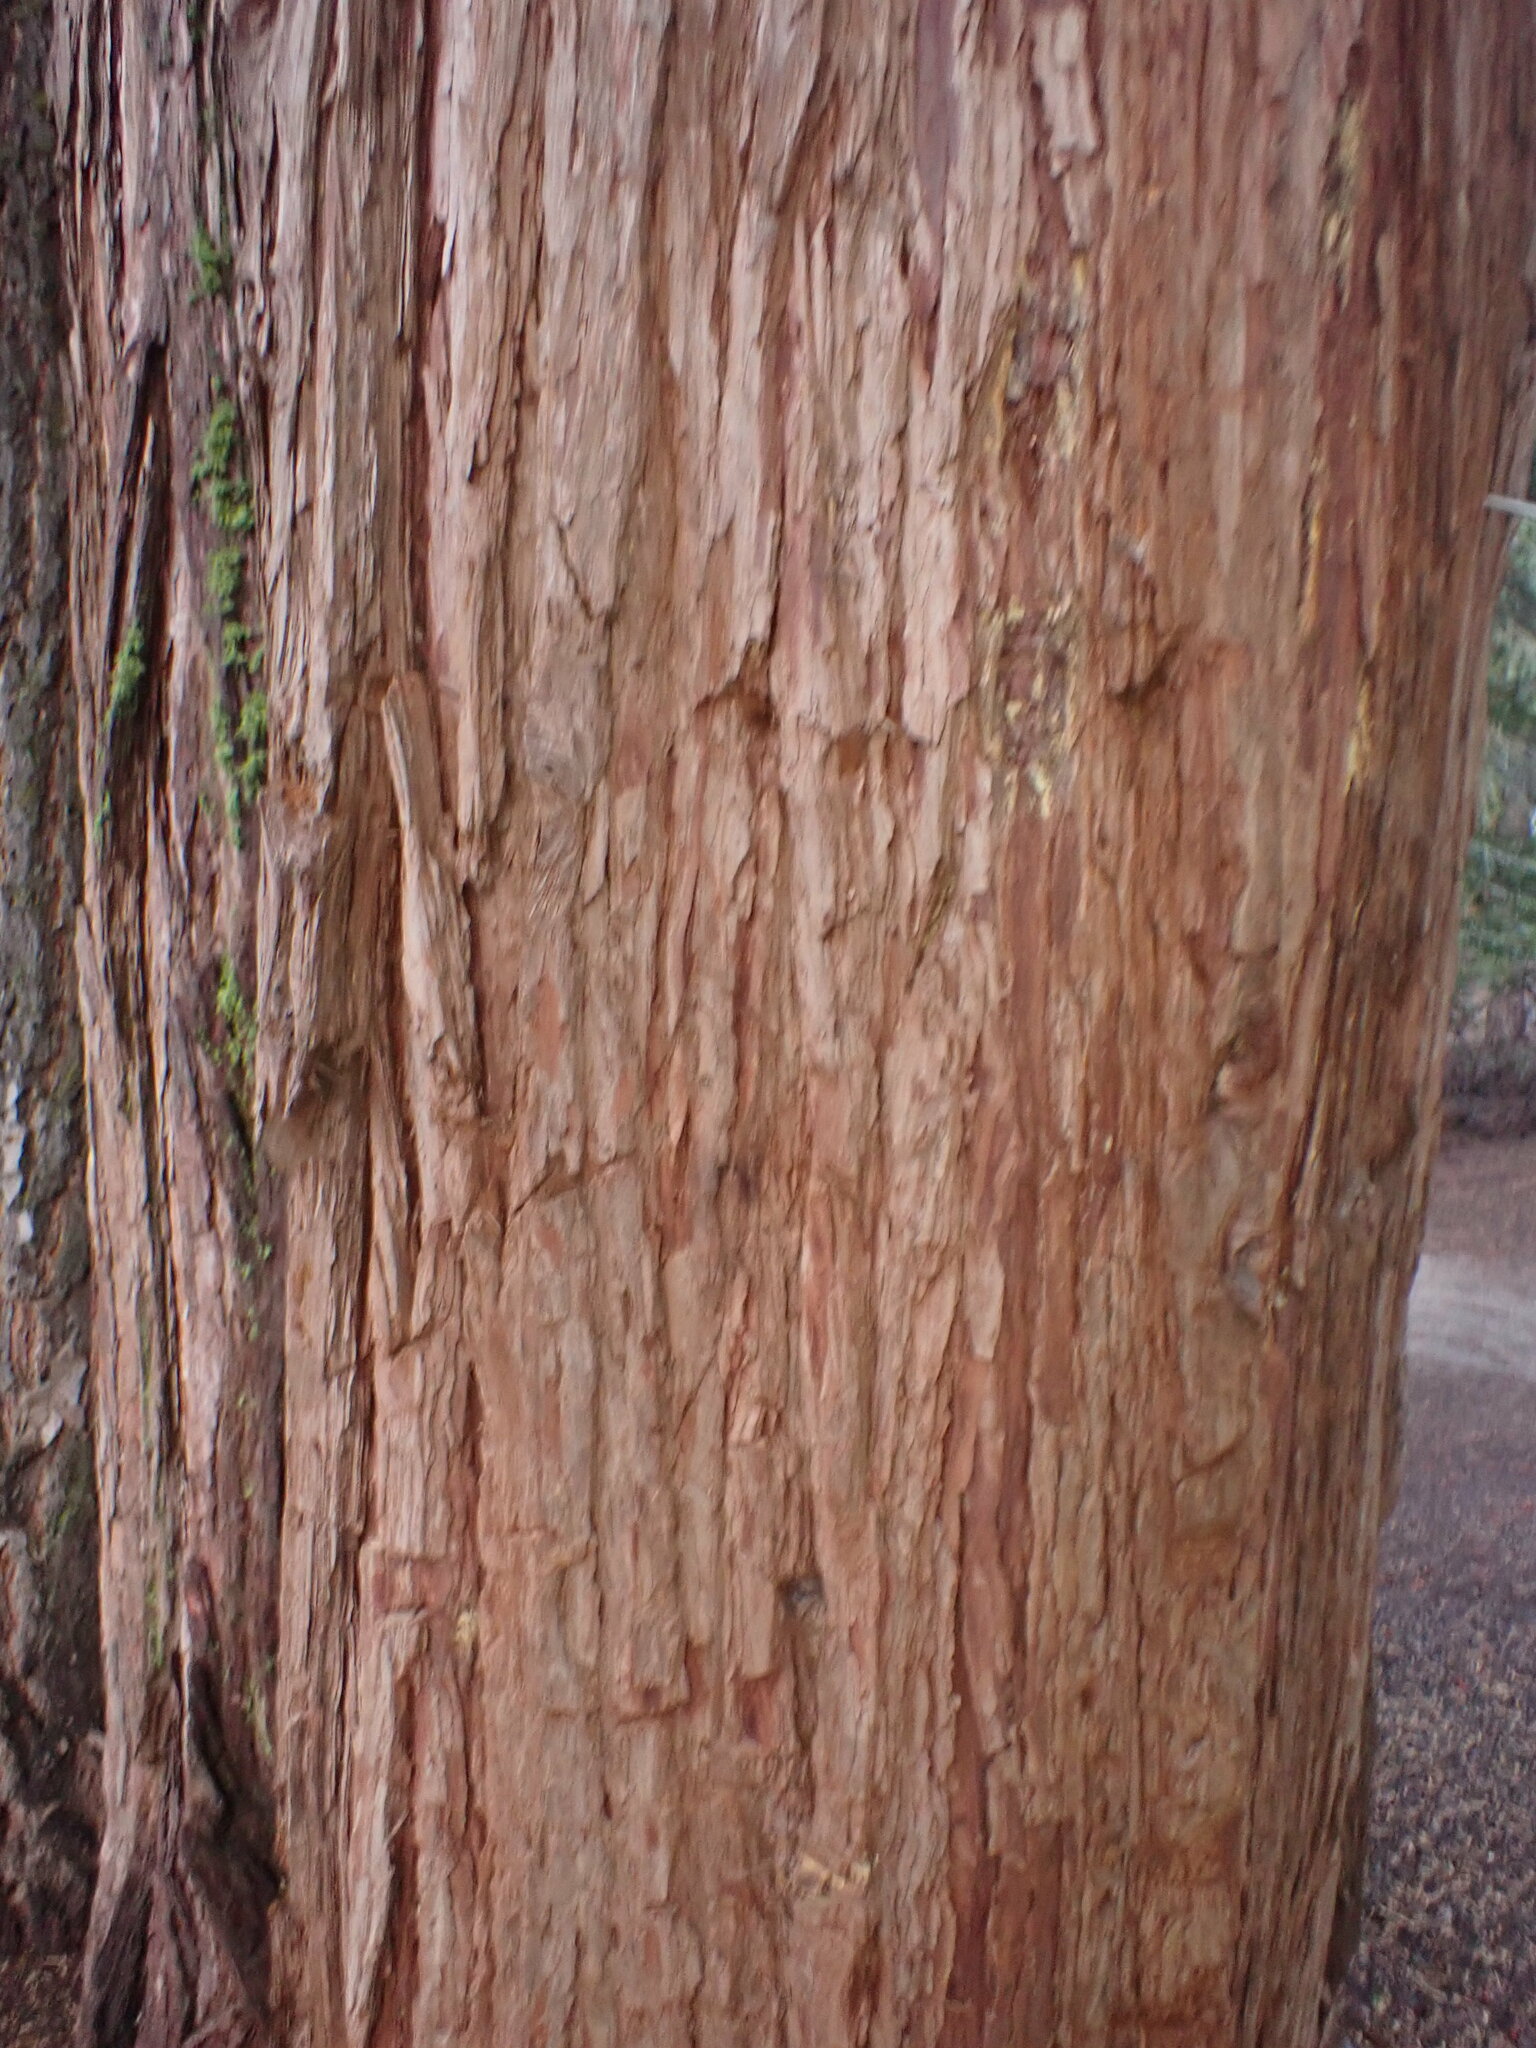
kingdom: Plantae
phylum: Tracheophyta
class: Pinopsida
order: Pinales
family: Cupressaceae
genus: Calocedrus
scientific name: Calocedrus decurrens
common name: Californian incense-cedar
